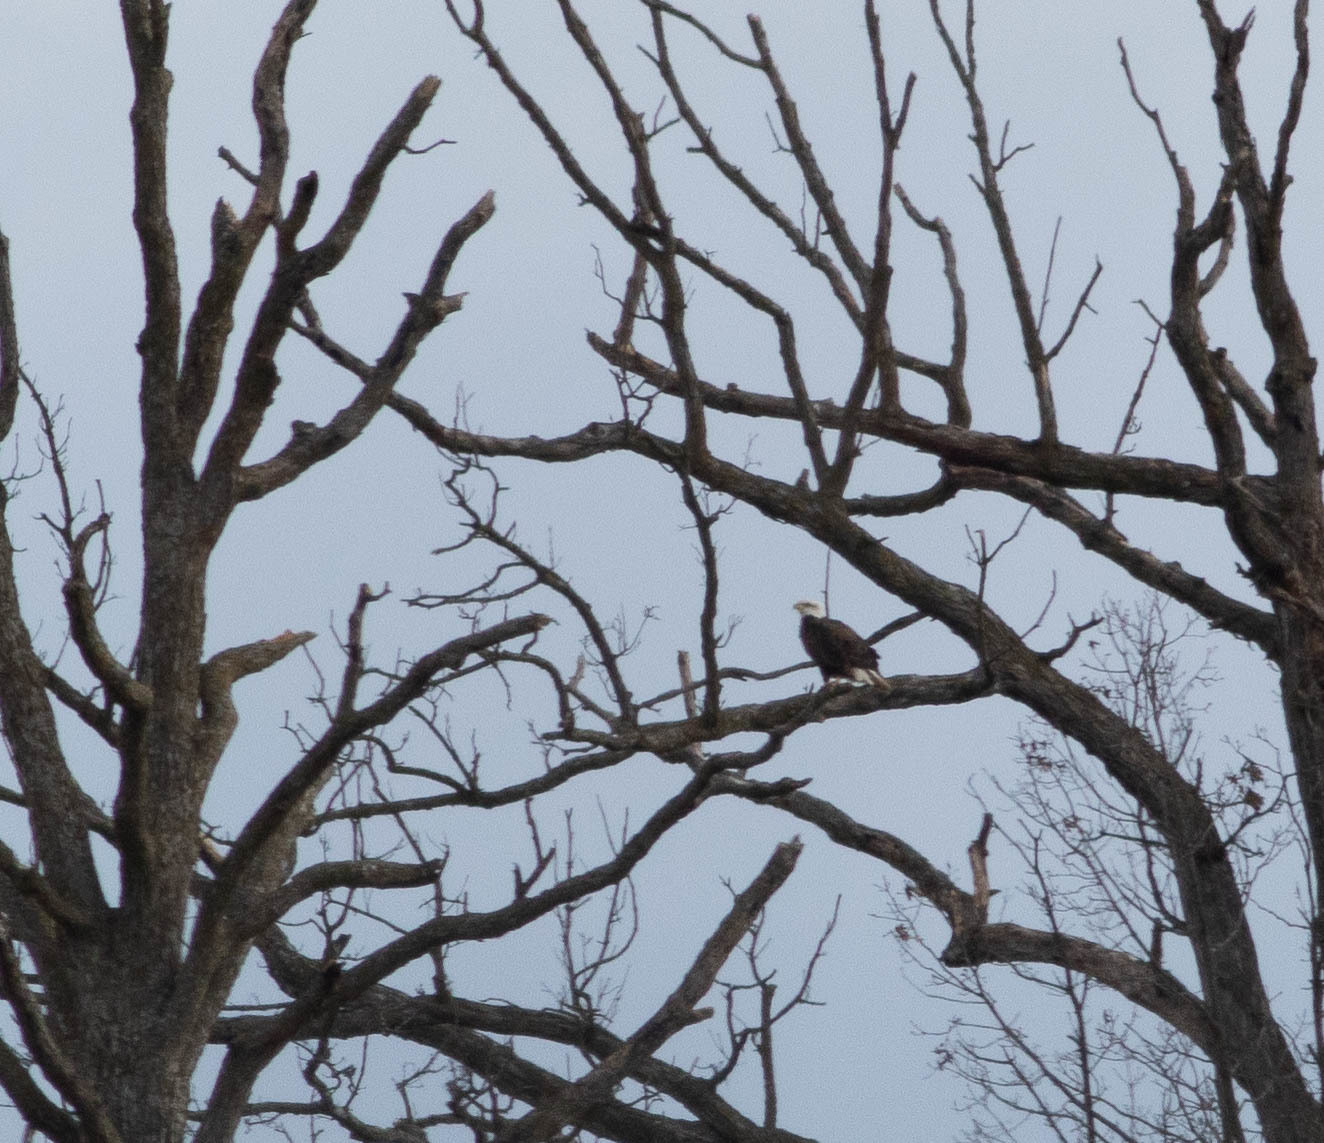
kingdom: Animalia
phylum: Chordata
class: Aves
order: Accipitriformes
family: Accipitridae
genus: Haliaeetus
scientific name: Haliaeetus leucocephalus
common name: Bald eagle
